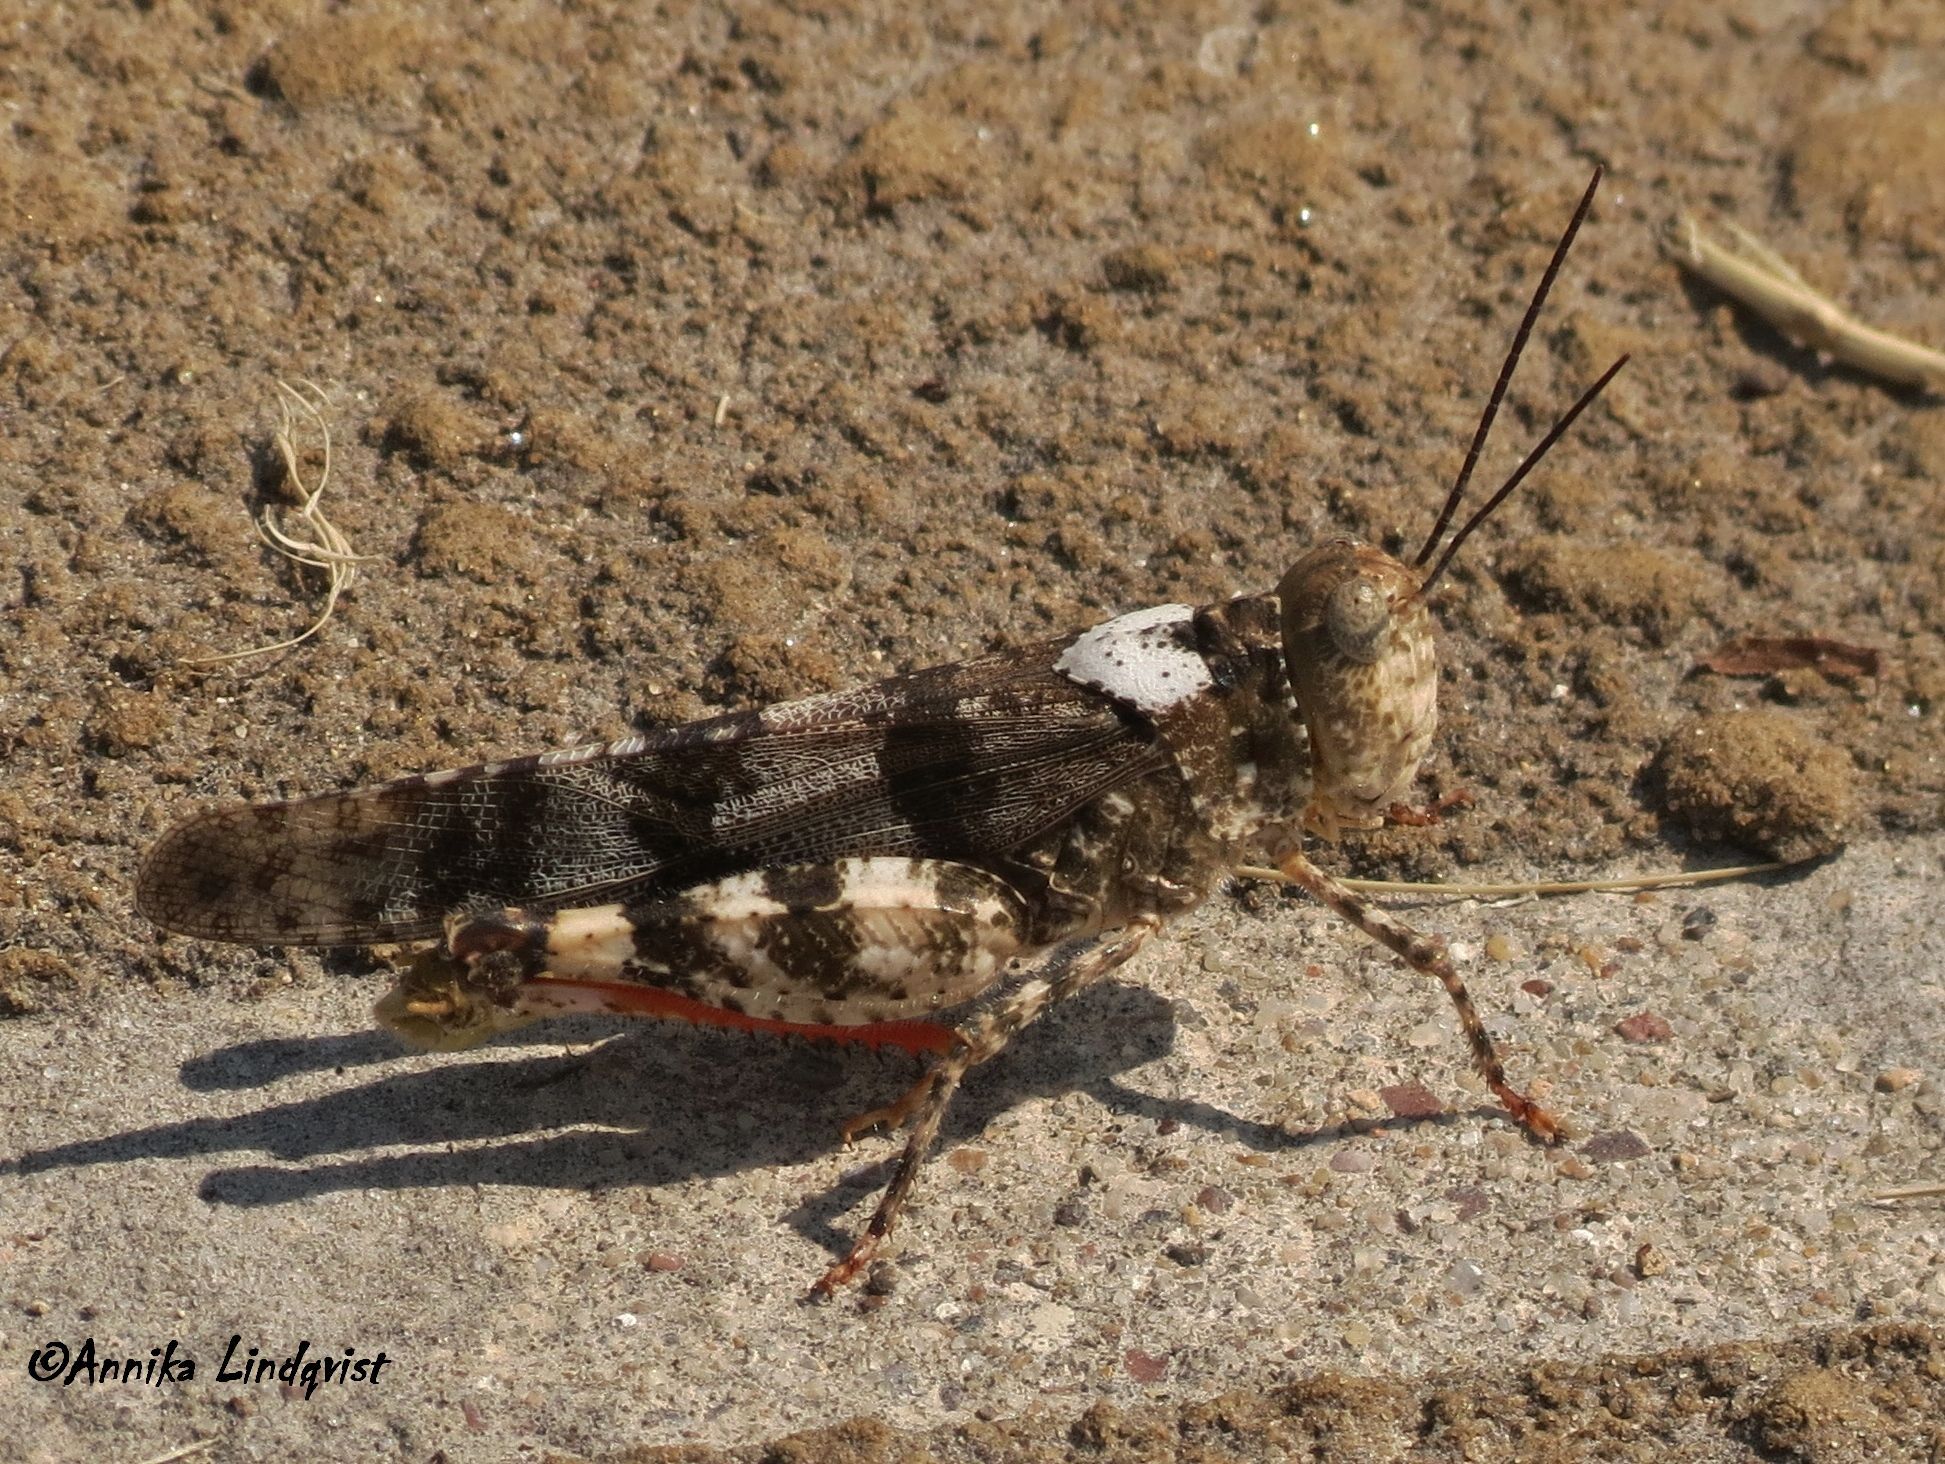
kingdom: Animalia
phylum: Arthropoda
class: Insecta
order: Orthoptera
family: Acrididae
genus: Spharagemon
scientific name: Spharagemon equale
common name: Orange-legged grasshopper
